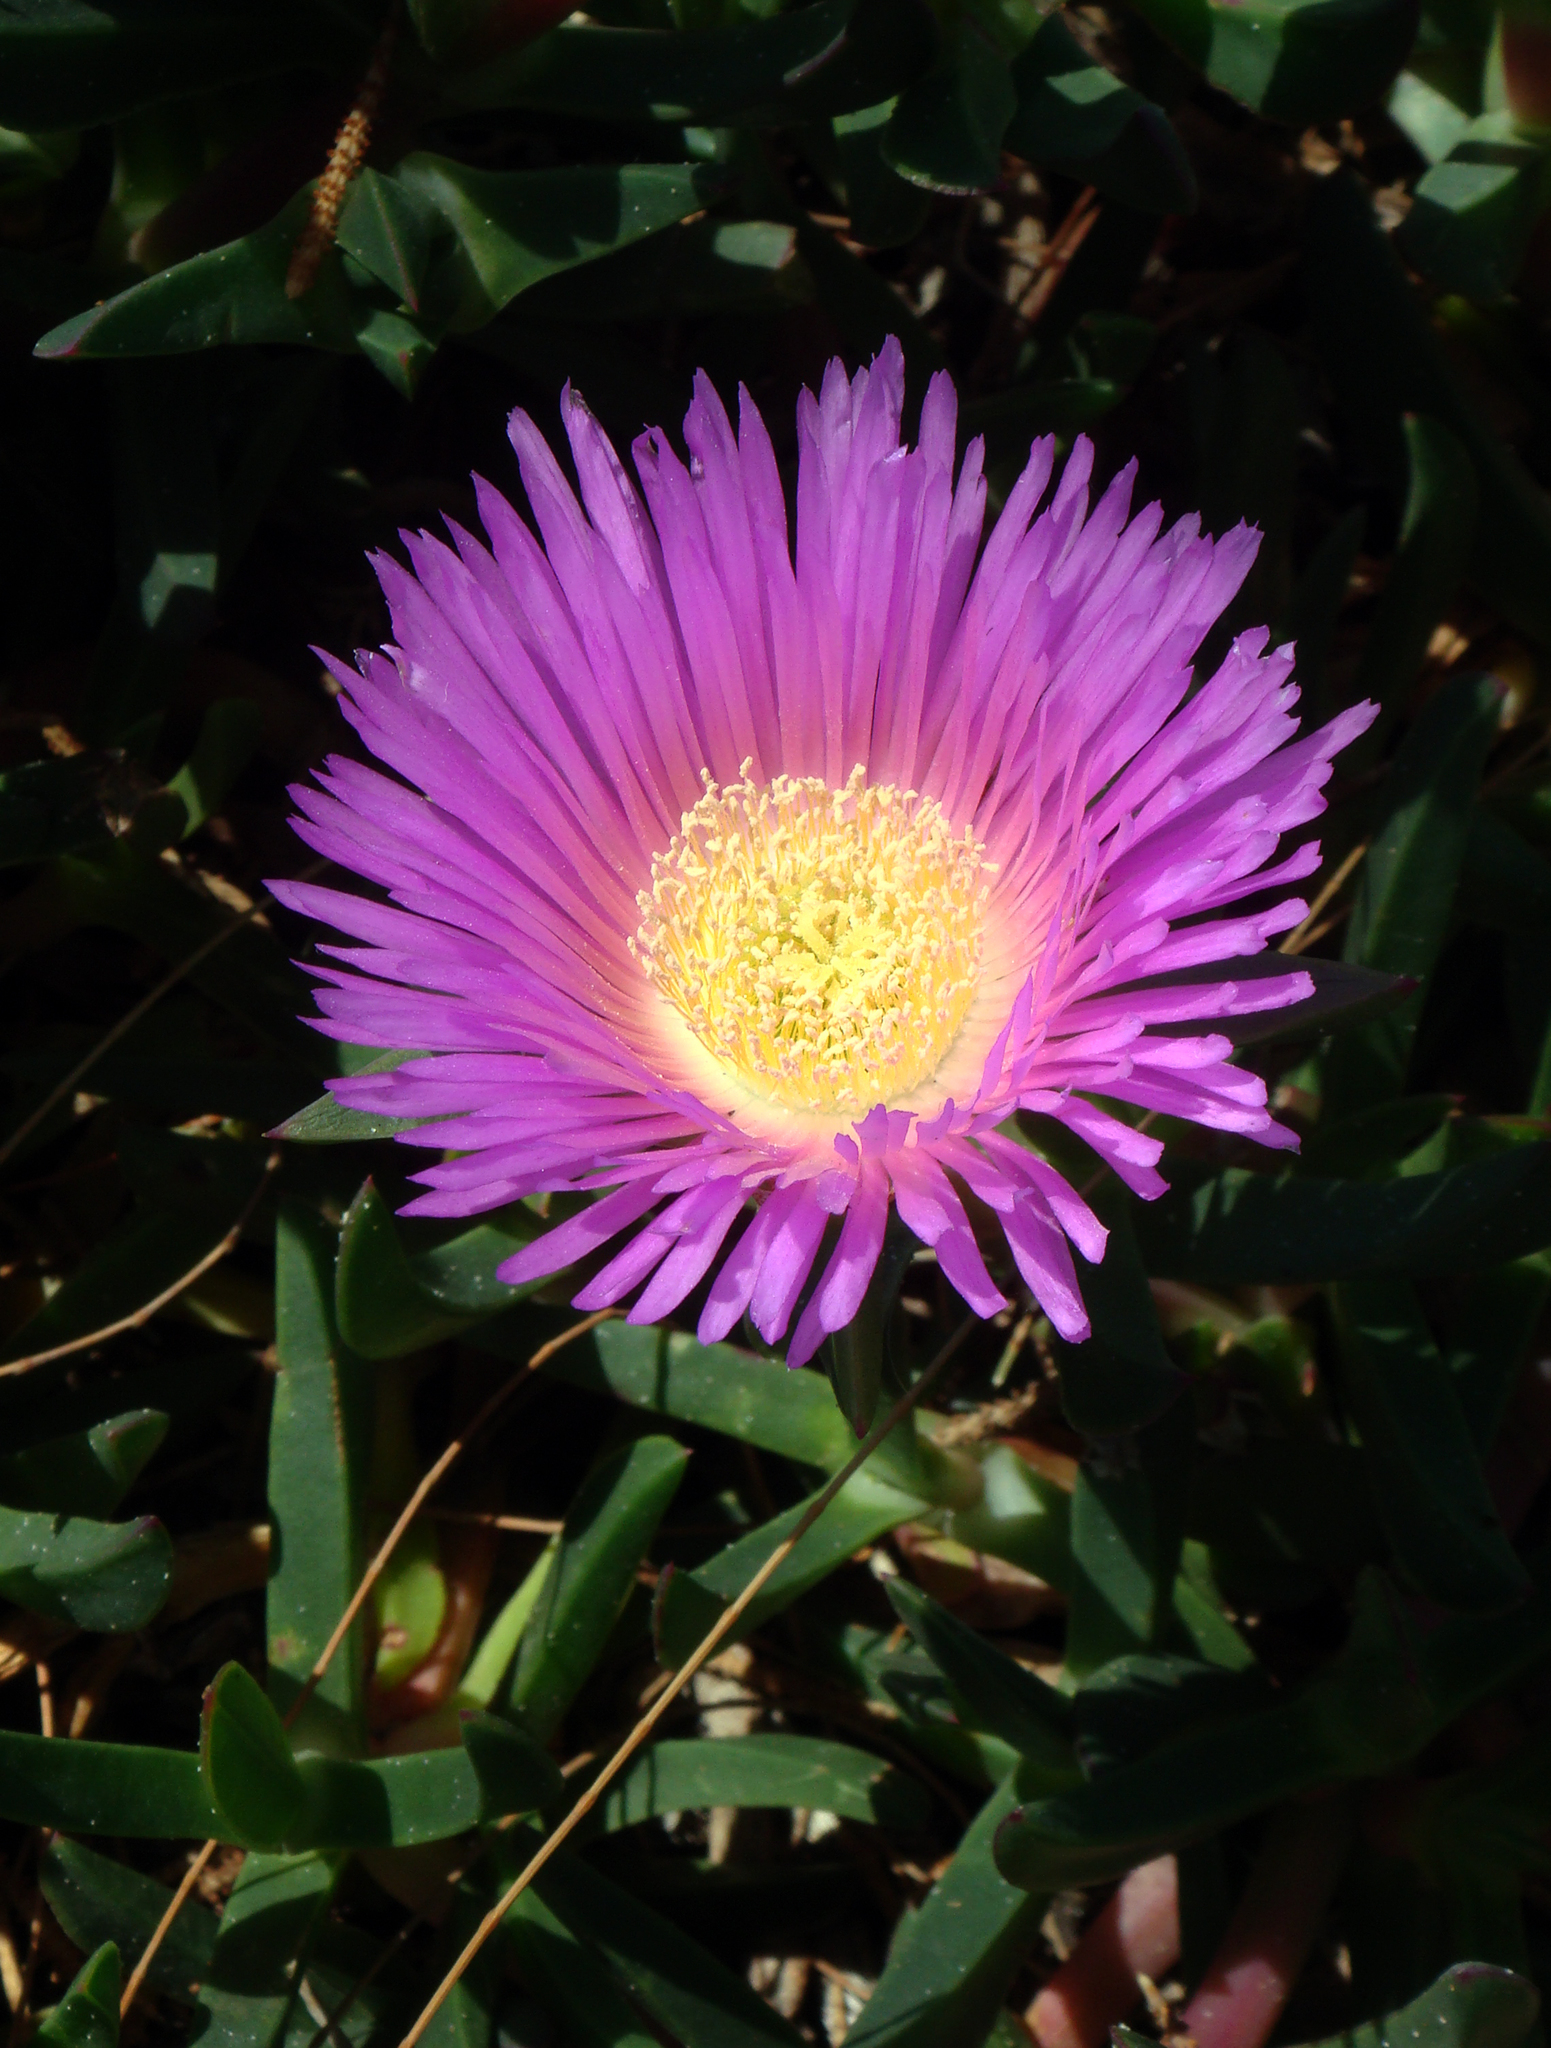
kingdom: Plantae
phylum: Tracheophyta
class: Magnoliopsida
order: Caryophyllales
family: Aizoaceae
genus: Carpobrotus
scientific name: Carpobrotus glaucescens
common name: Angular sea-fig
